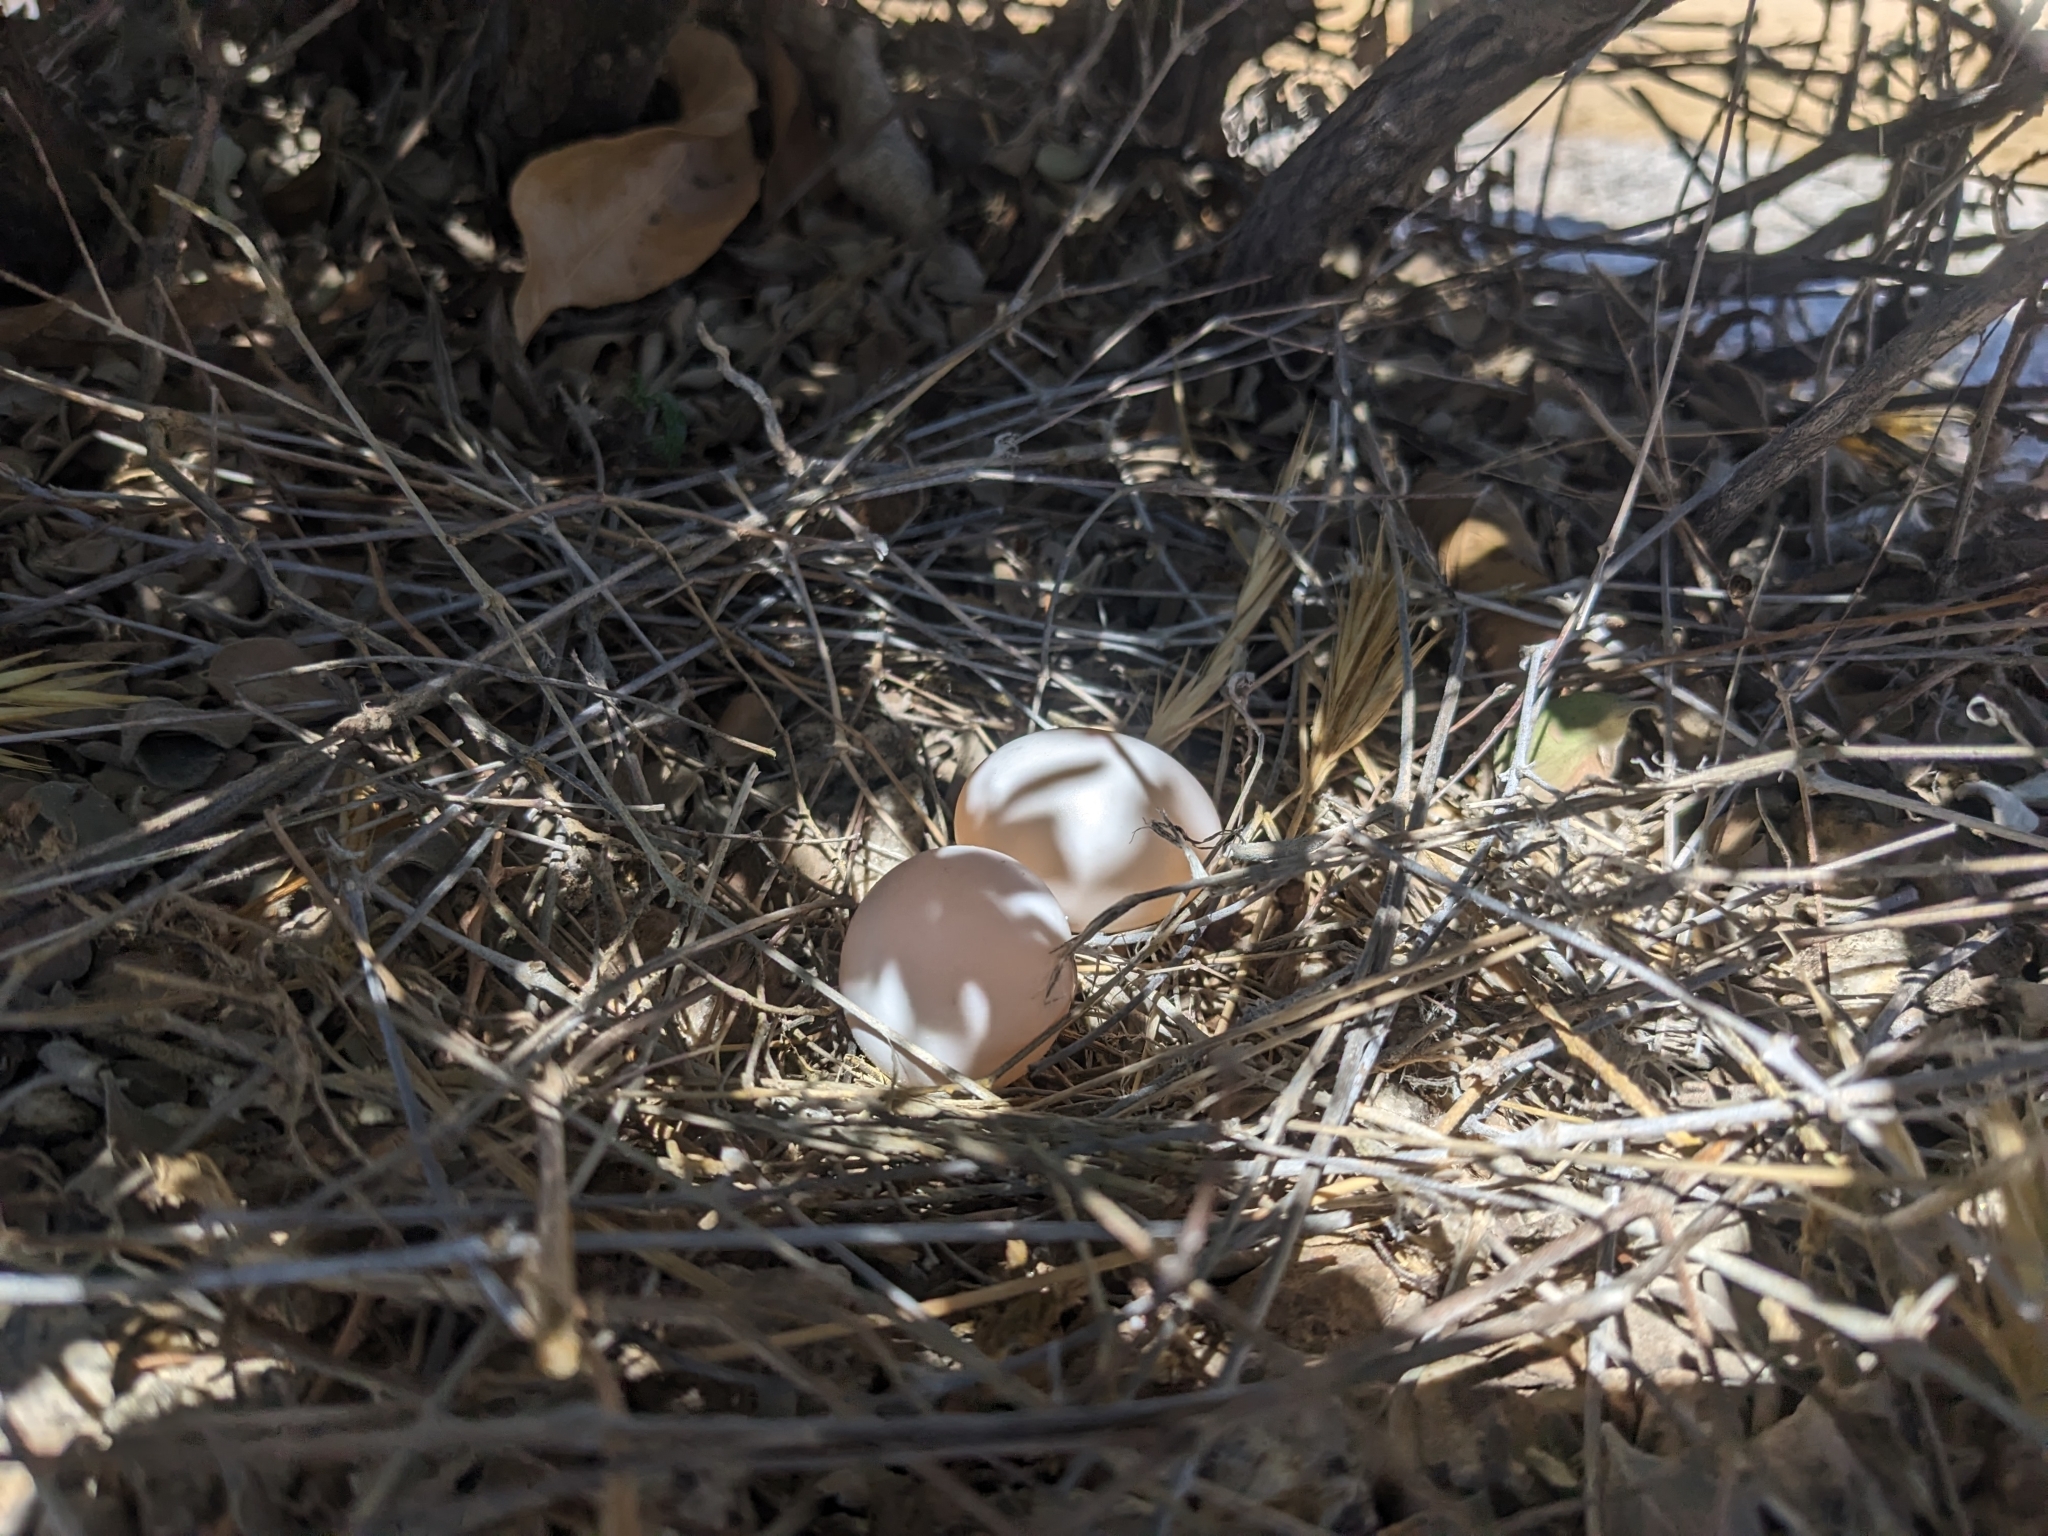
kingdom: Animalia
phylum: Chordata
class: Aves
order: Columbiformes
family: Columbidae
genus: Zenaida
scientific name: Zenaida macroura
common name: Mourning dove
